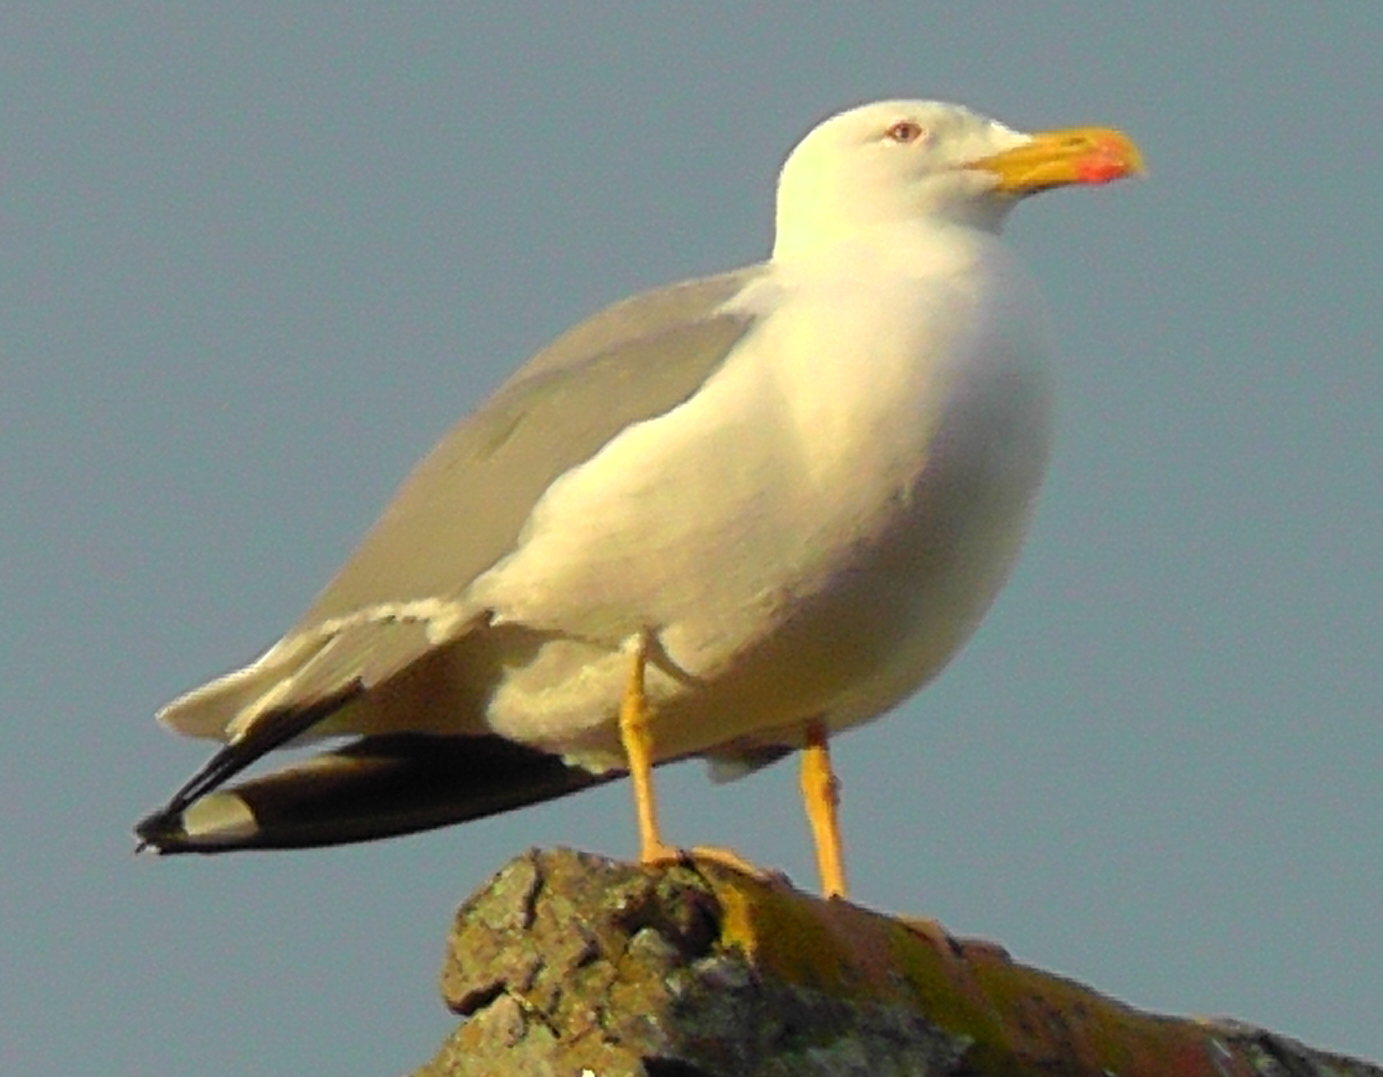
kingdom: Animalia
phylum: Chordata
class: Aves
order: Charadriiformes
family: Laridae
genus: Larus
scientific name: Larus michahellis
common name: Yellow-legged gull
